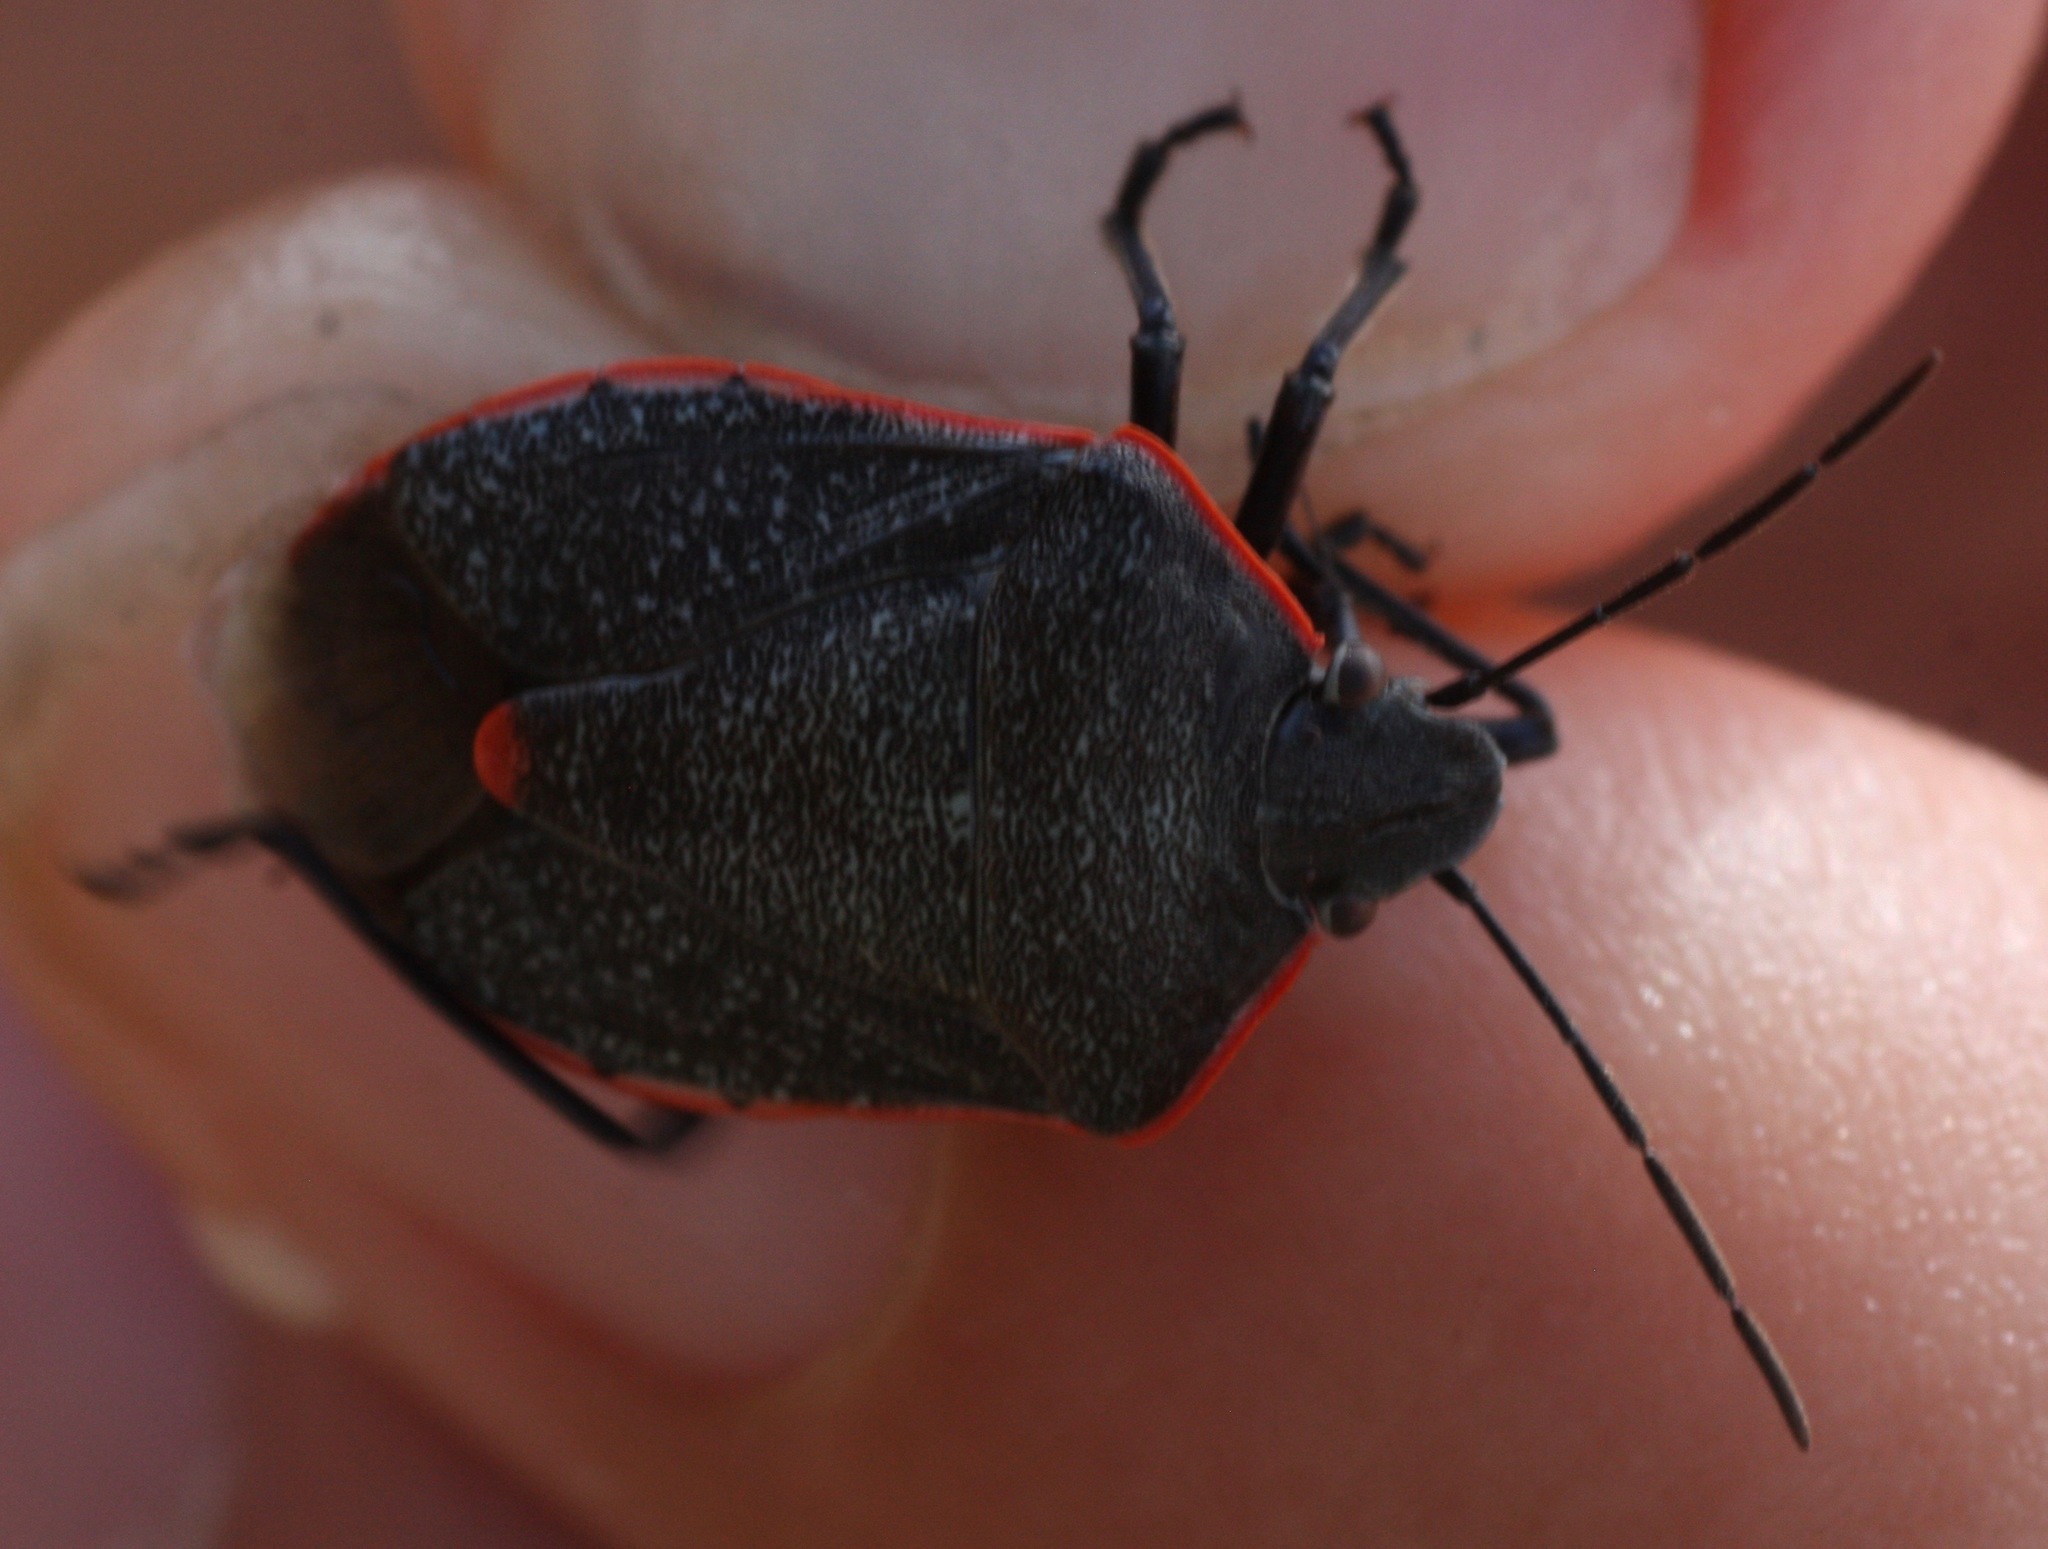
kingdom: Animalia
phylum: Arthropoda
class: Insecta
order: Hemiptera
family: Pentatomidae
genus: Chlorochroa
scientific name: Chlorochroa ligata
